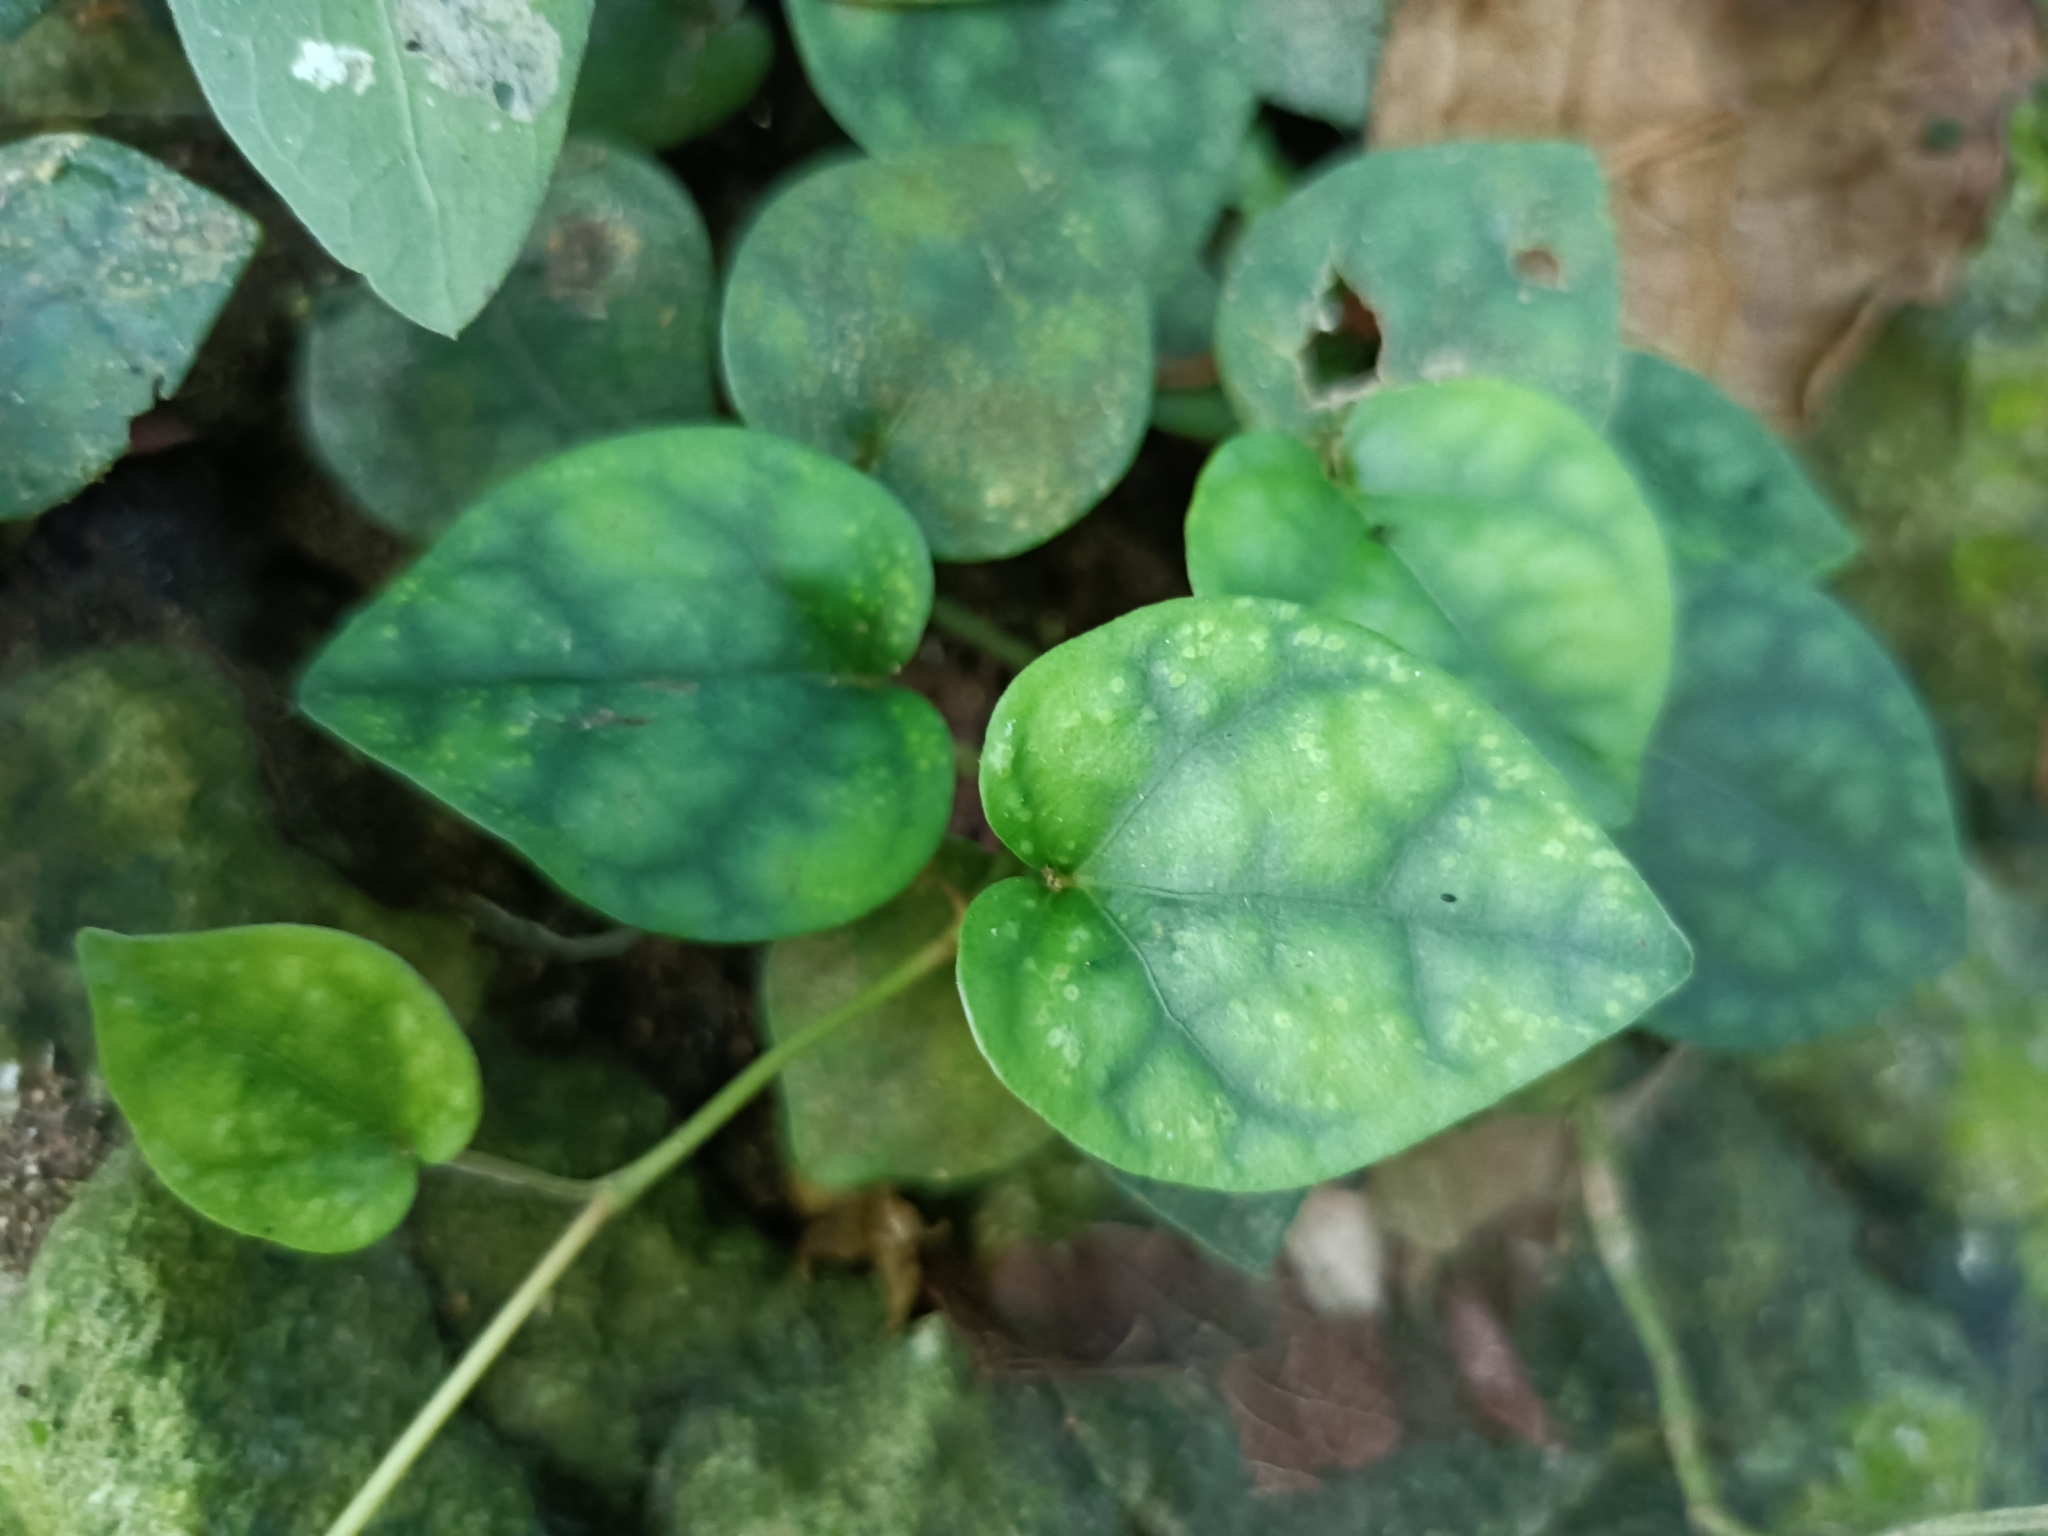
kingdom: Plantae
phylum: Tracheophyta
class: Magnoliopsida
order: Piperales
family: Piperaceae
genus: Piper
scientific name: Piper kadsura
